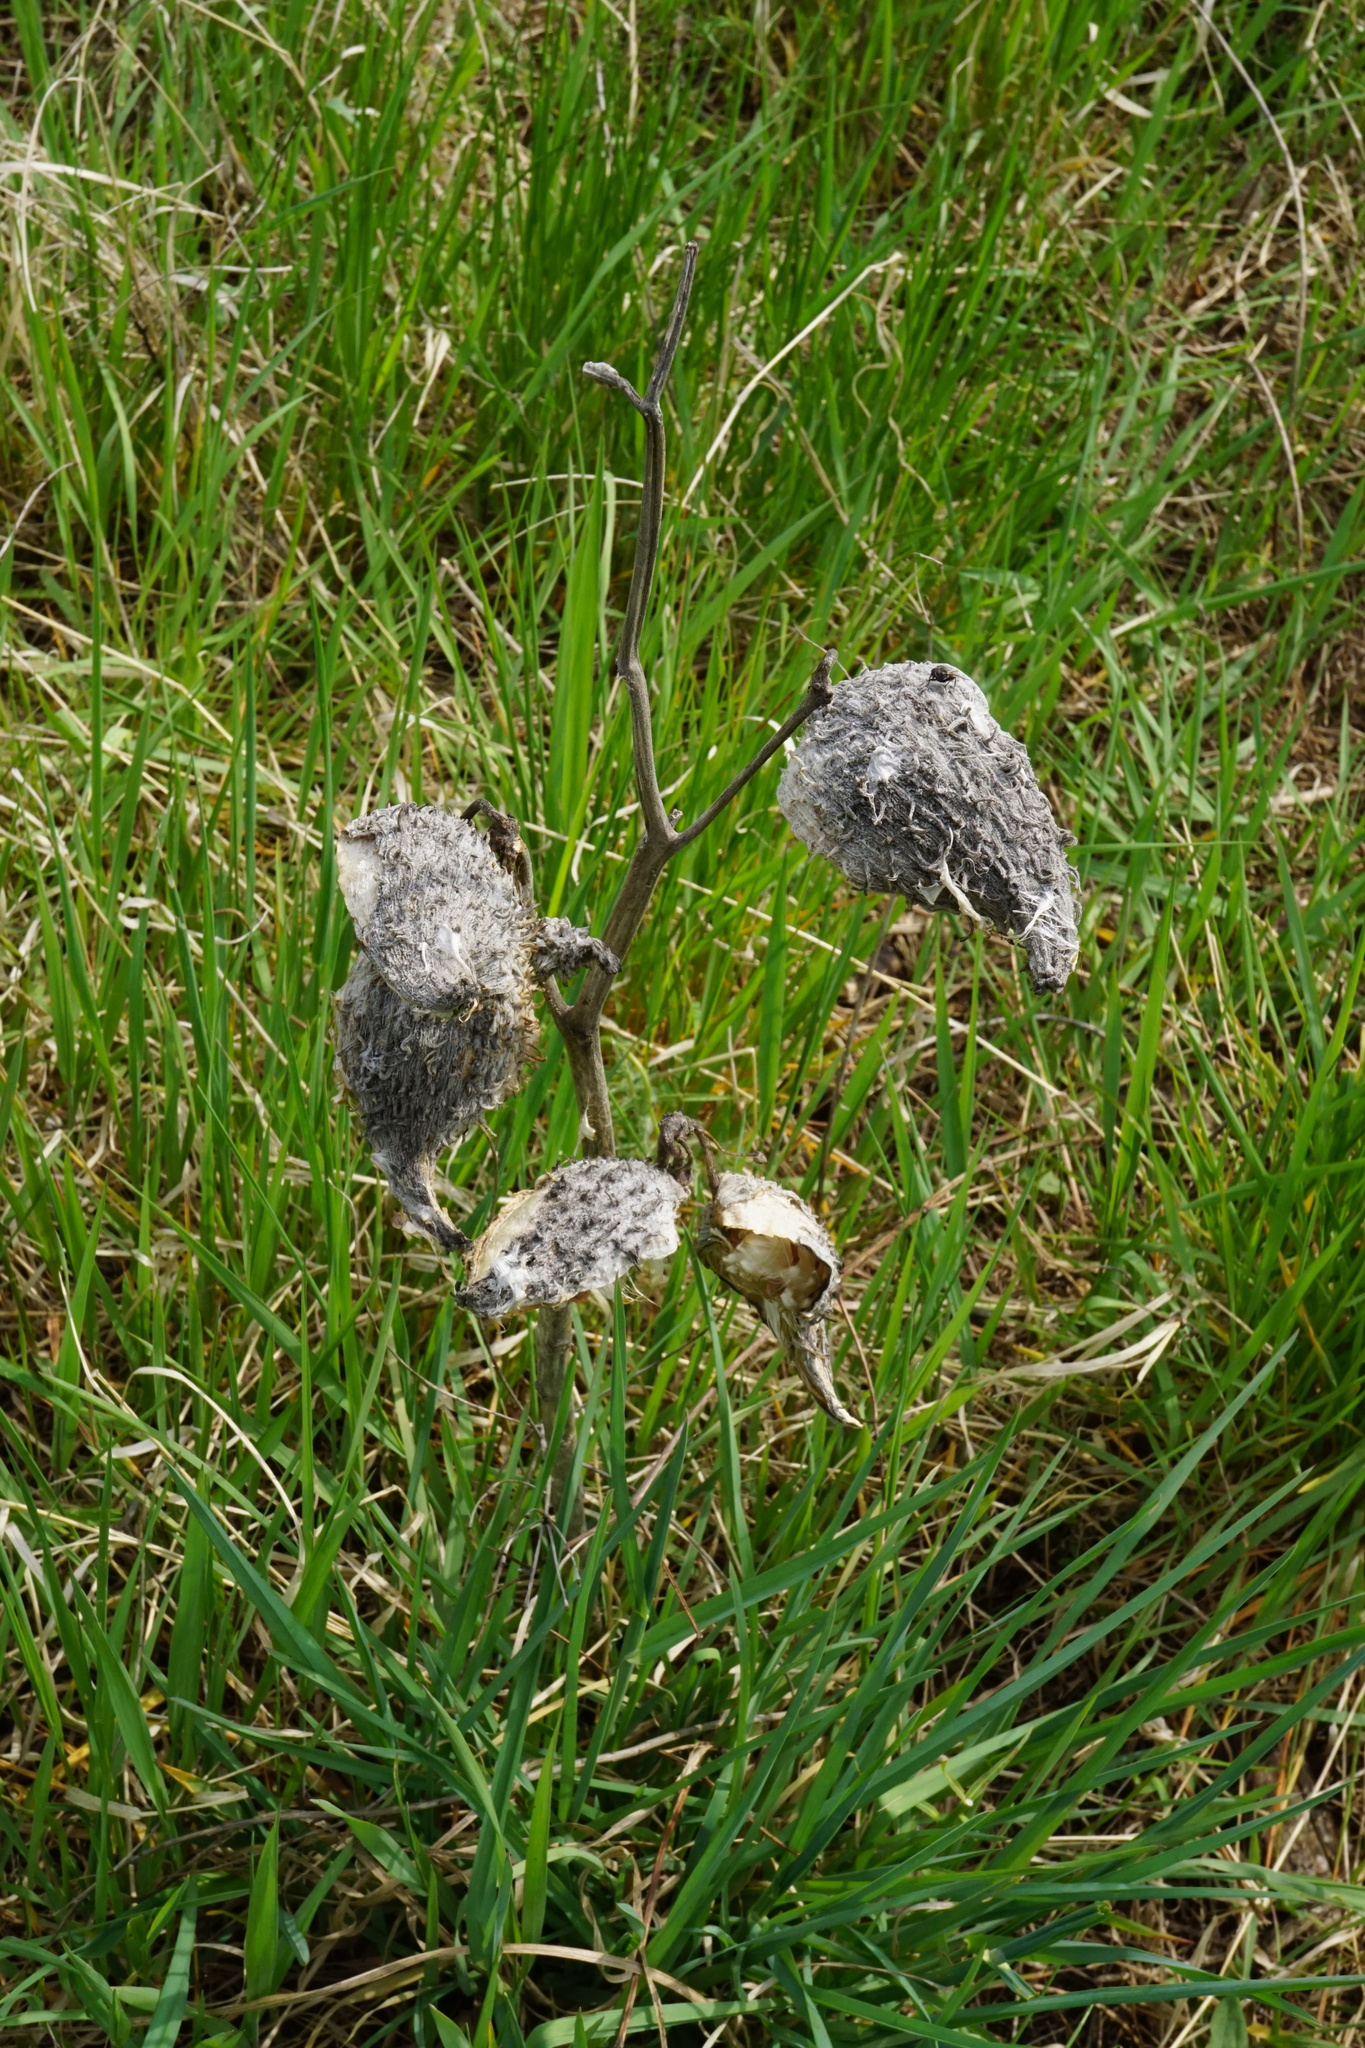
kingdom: Plantae
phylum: Tracheophyta
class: Magnoliopsida
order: Gentianales
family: Apocynaceae
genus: Asclepias
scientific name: Asclepias syriaca
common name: Common milkweed
